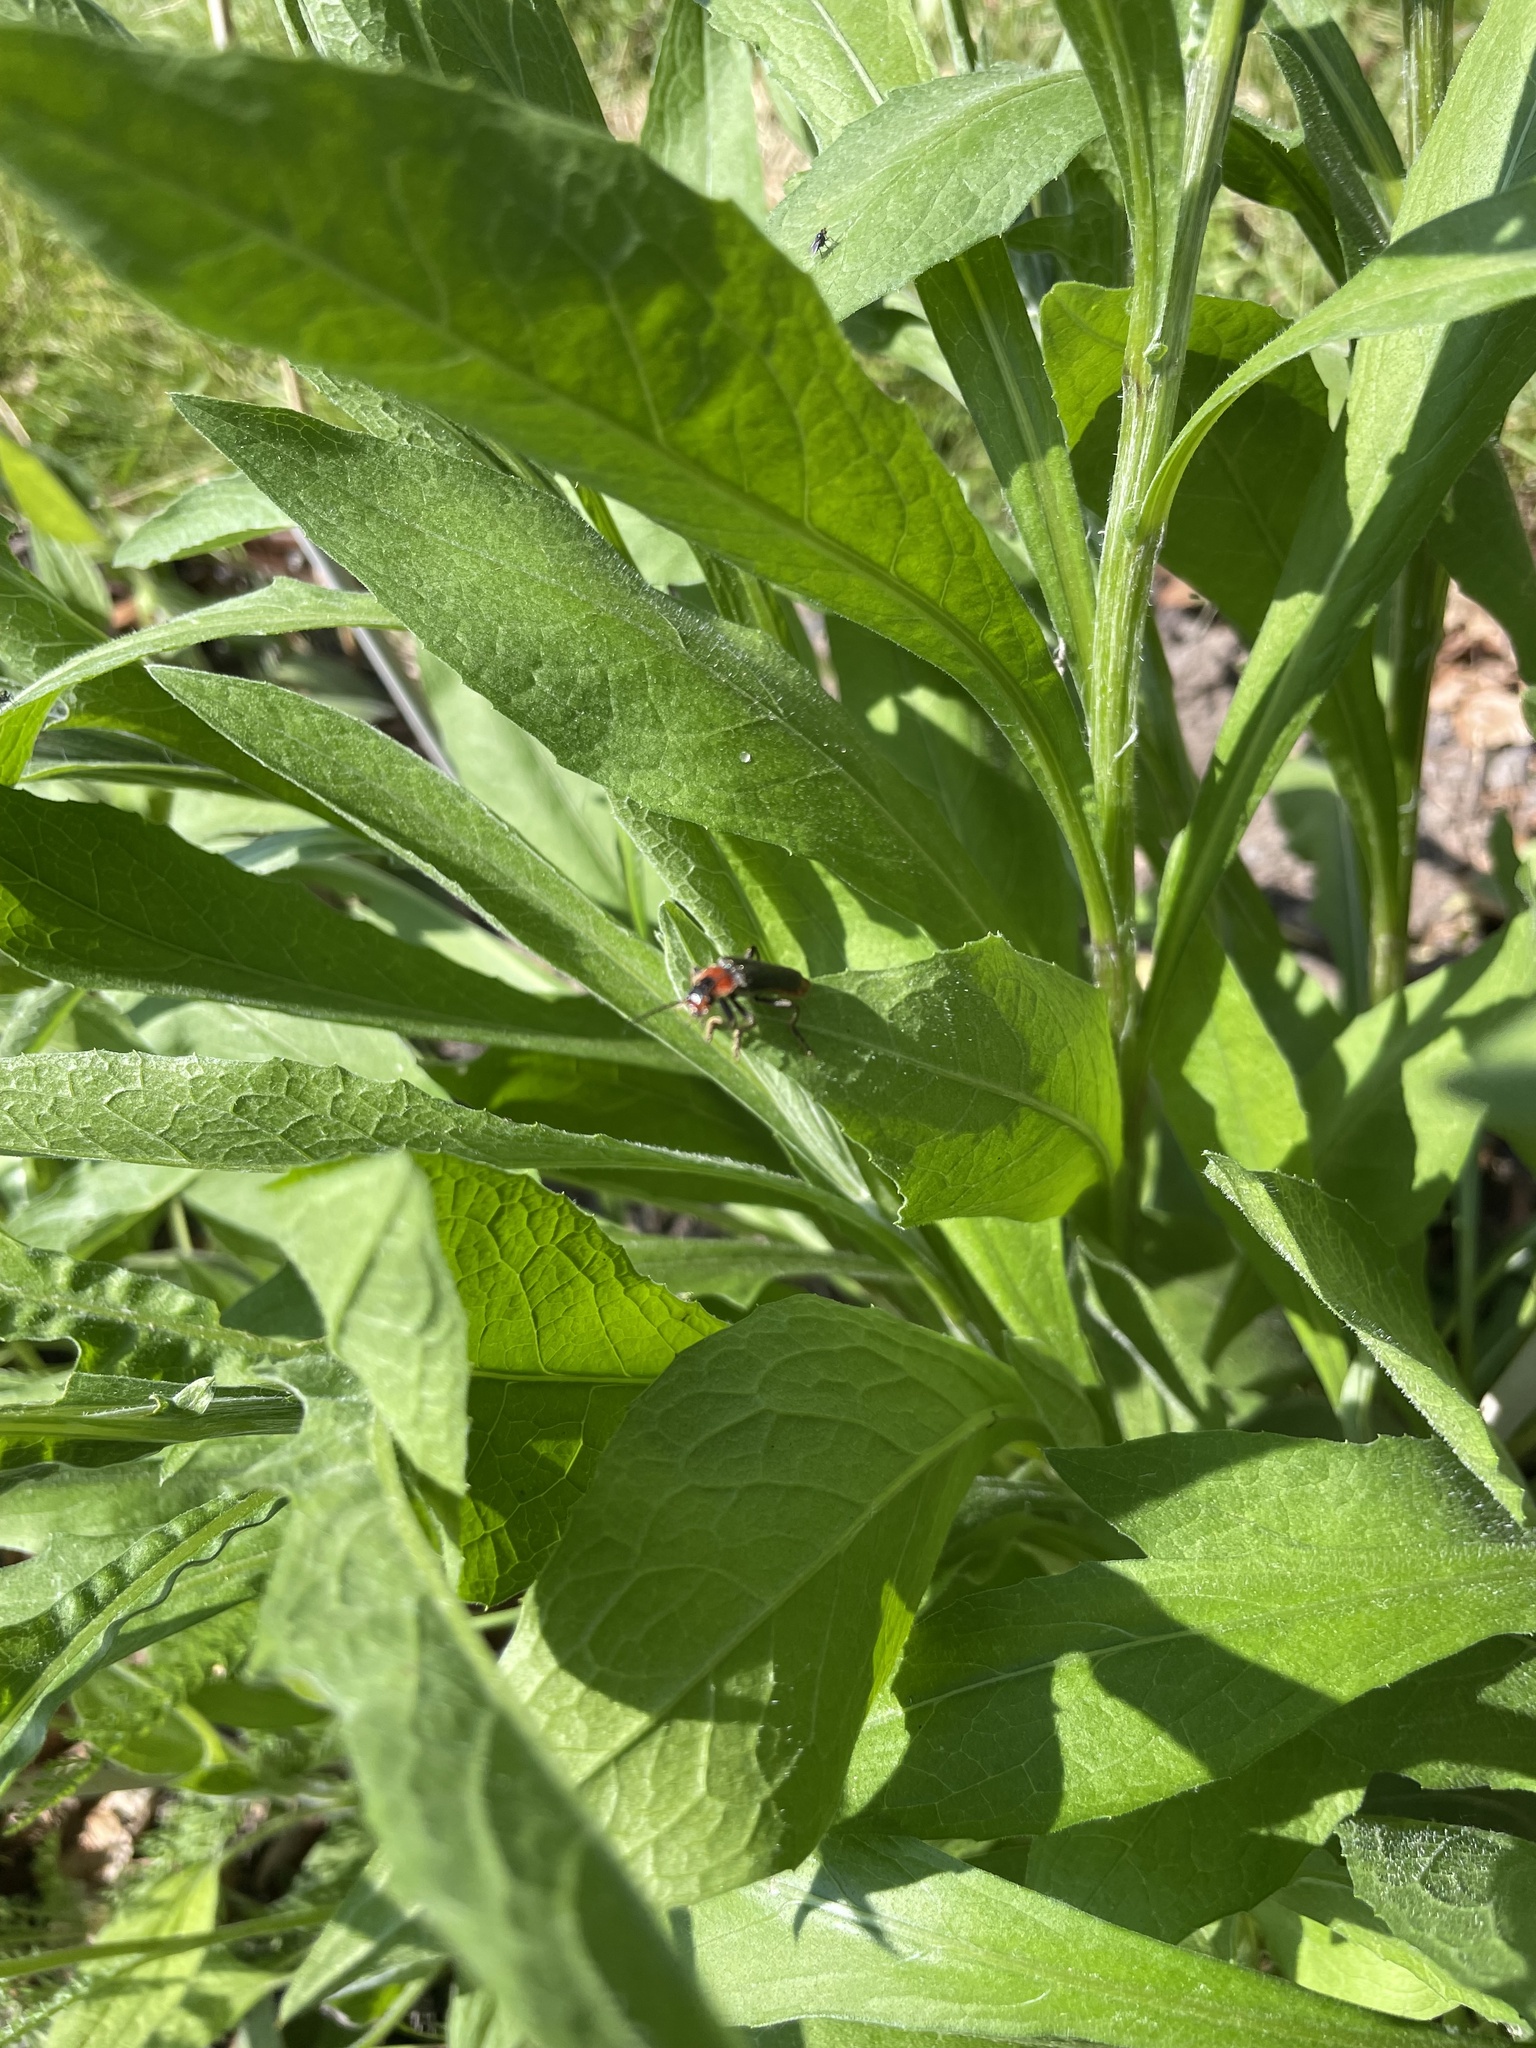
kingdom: Animalia
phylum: Arthropoda
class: Insecta
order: Coleoptera
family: Cantharidae
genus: Cantharis
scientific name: Cantharis fusca
